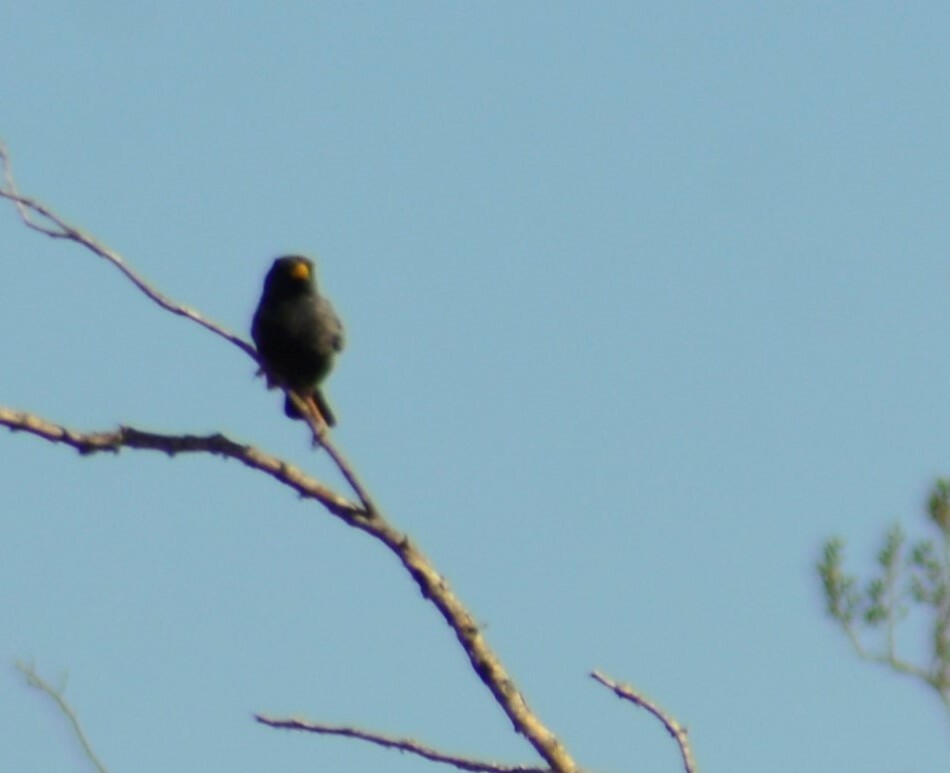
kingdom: Animalia
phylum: Chordata
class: Aves
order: Passeriformes
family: Thraupidae
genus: Porphyrospiza
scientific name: Porphyrospiza carbonaria
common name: Carbon finch
